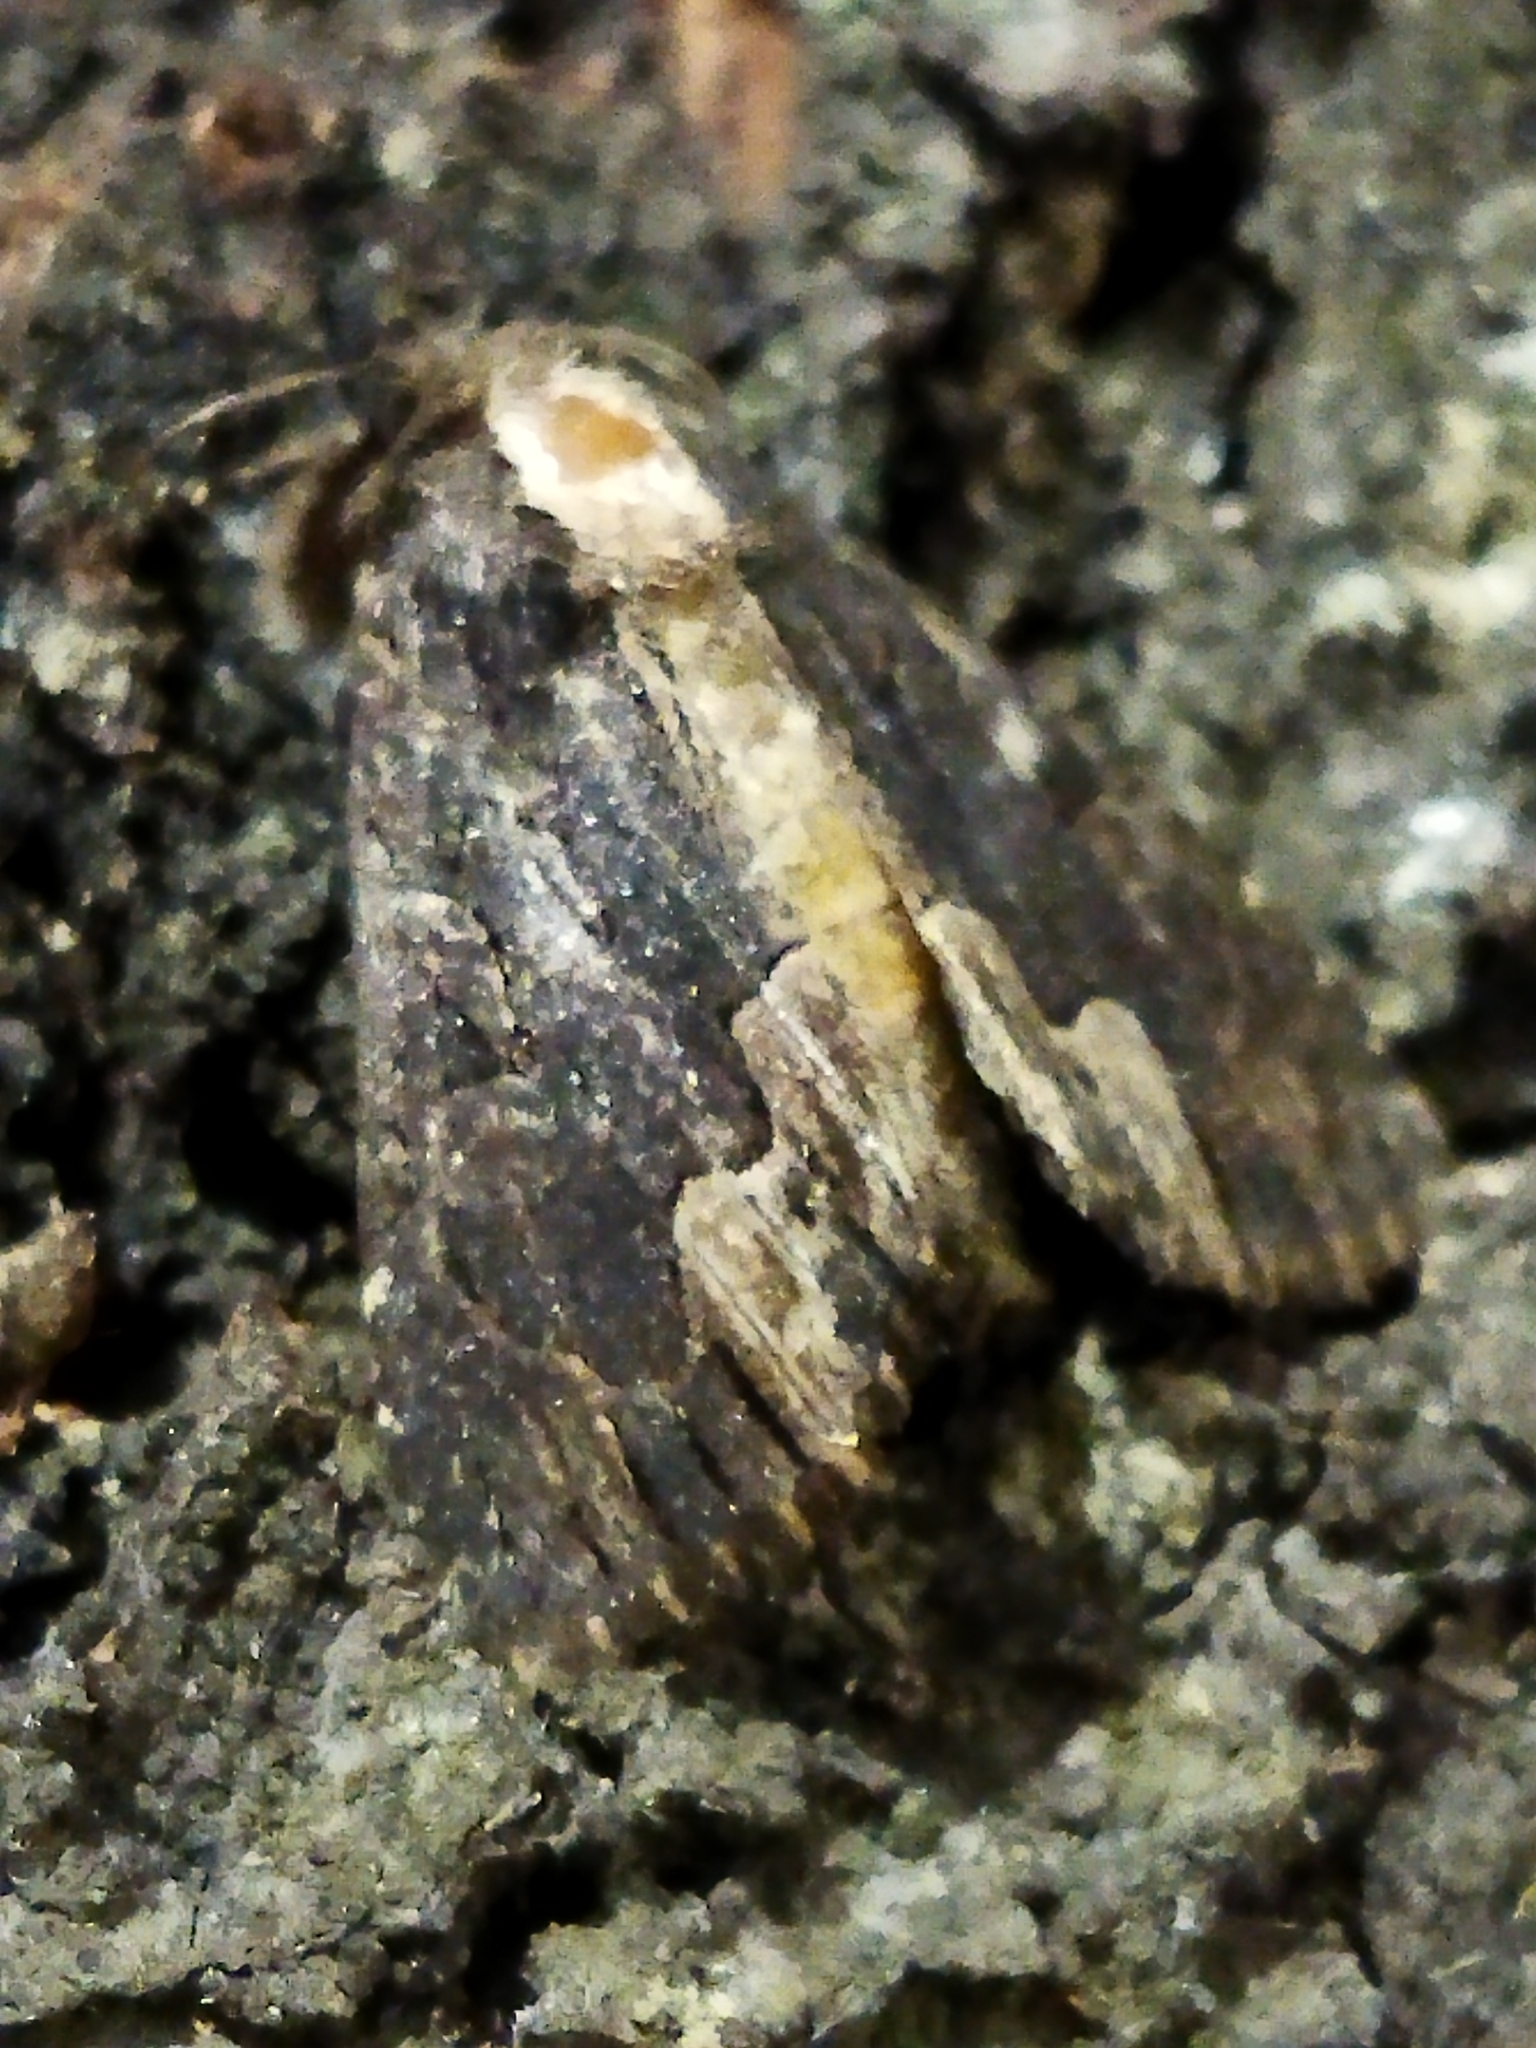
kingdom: Animalia
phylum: Arthropoda
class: Insecta
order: Lepidoptera
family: Noctuidae
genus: Dypterygia
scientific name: Dypterygia scabriuscula
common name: Bird's wing
